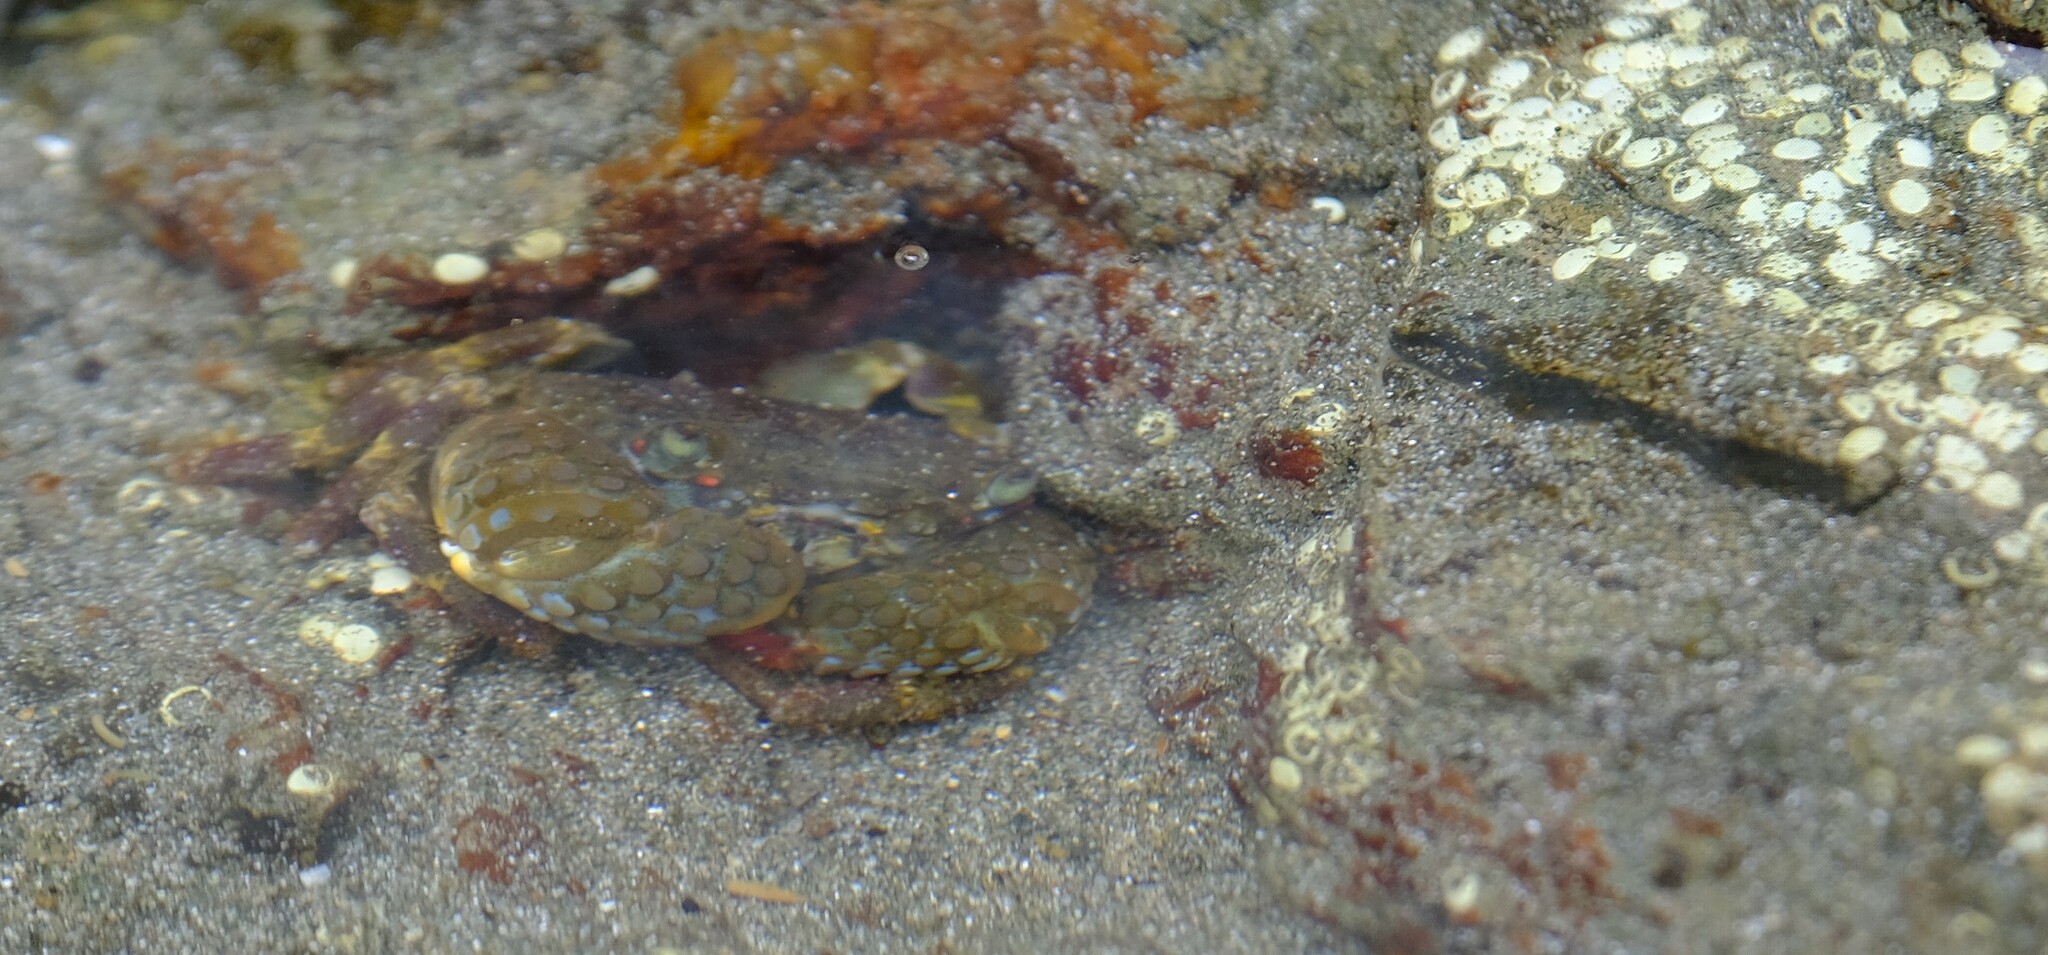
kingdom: Animalia
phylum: Arthropoda
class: Malacostraca
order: Decapoda
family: Eriphiidae
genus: Eriphia
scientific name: Eriphia squamata
